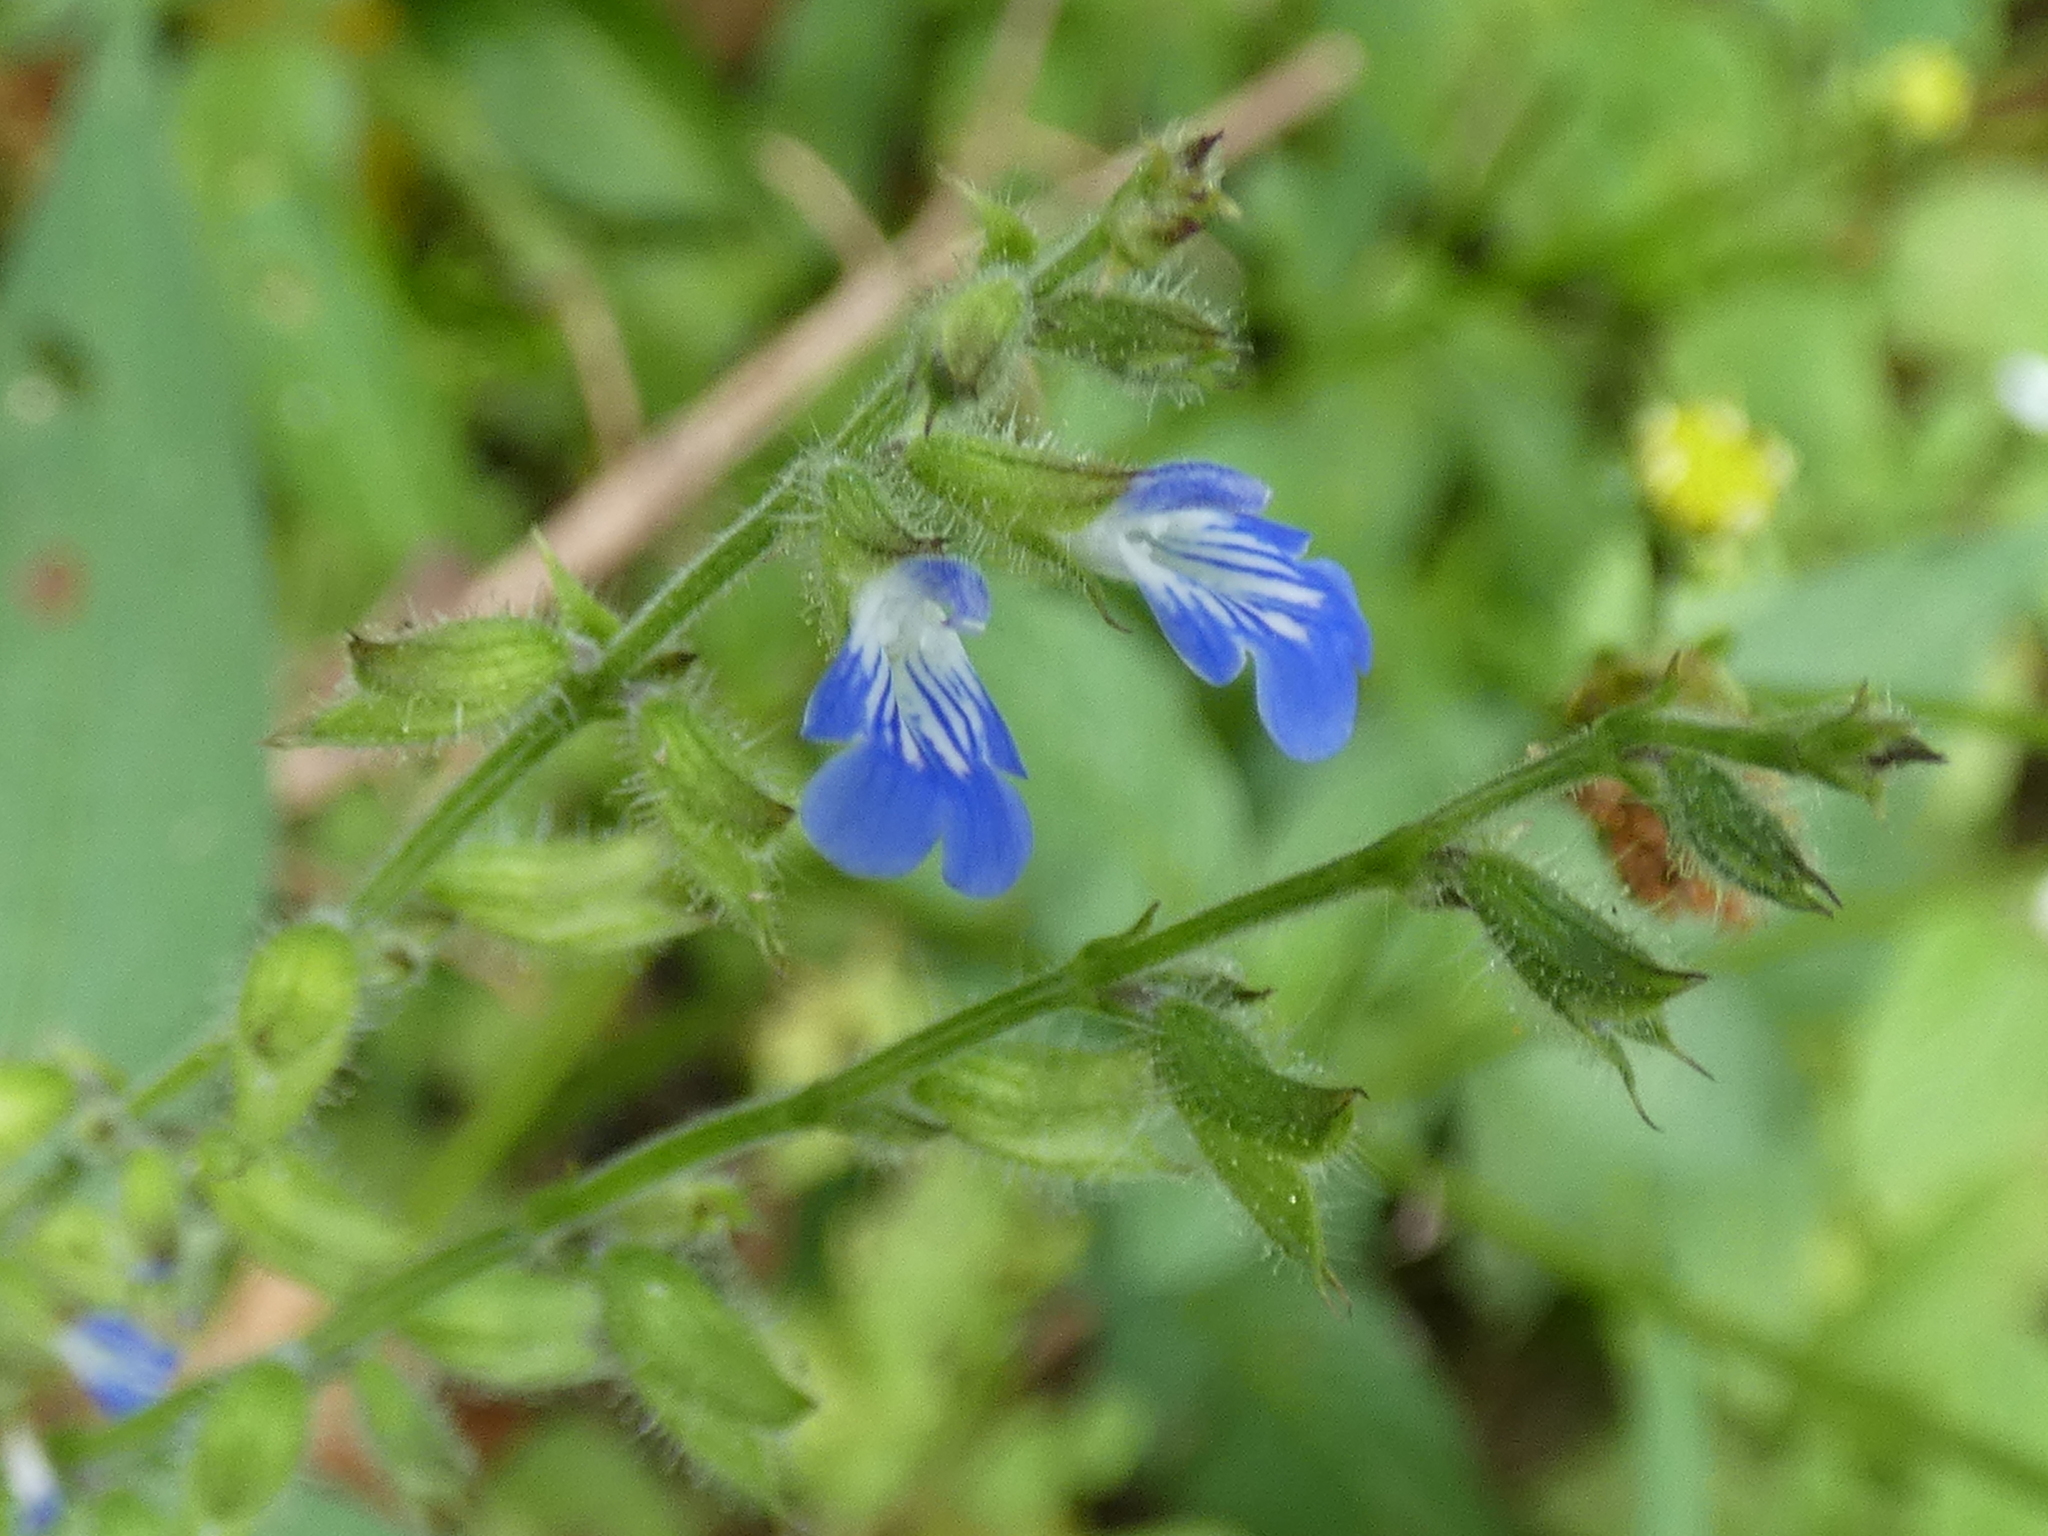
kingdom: Plantae
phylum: Tracheophyta
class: Magnoliopsida
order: Lamiales
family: Lamiaceae
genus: Salvia
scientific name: Salvia misella
